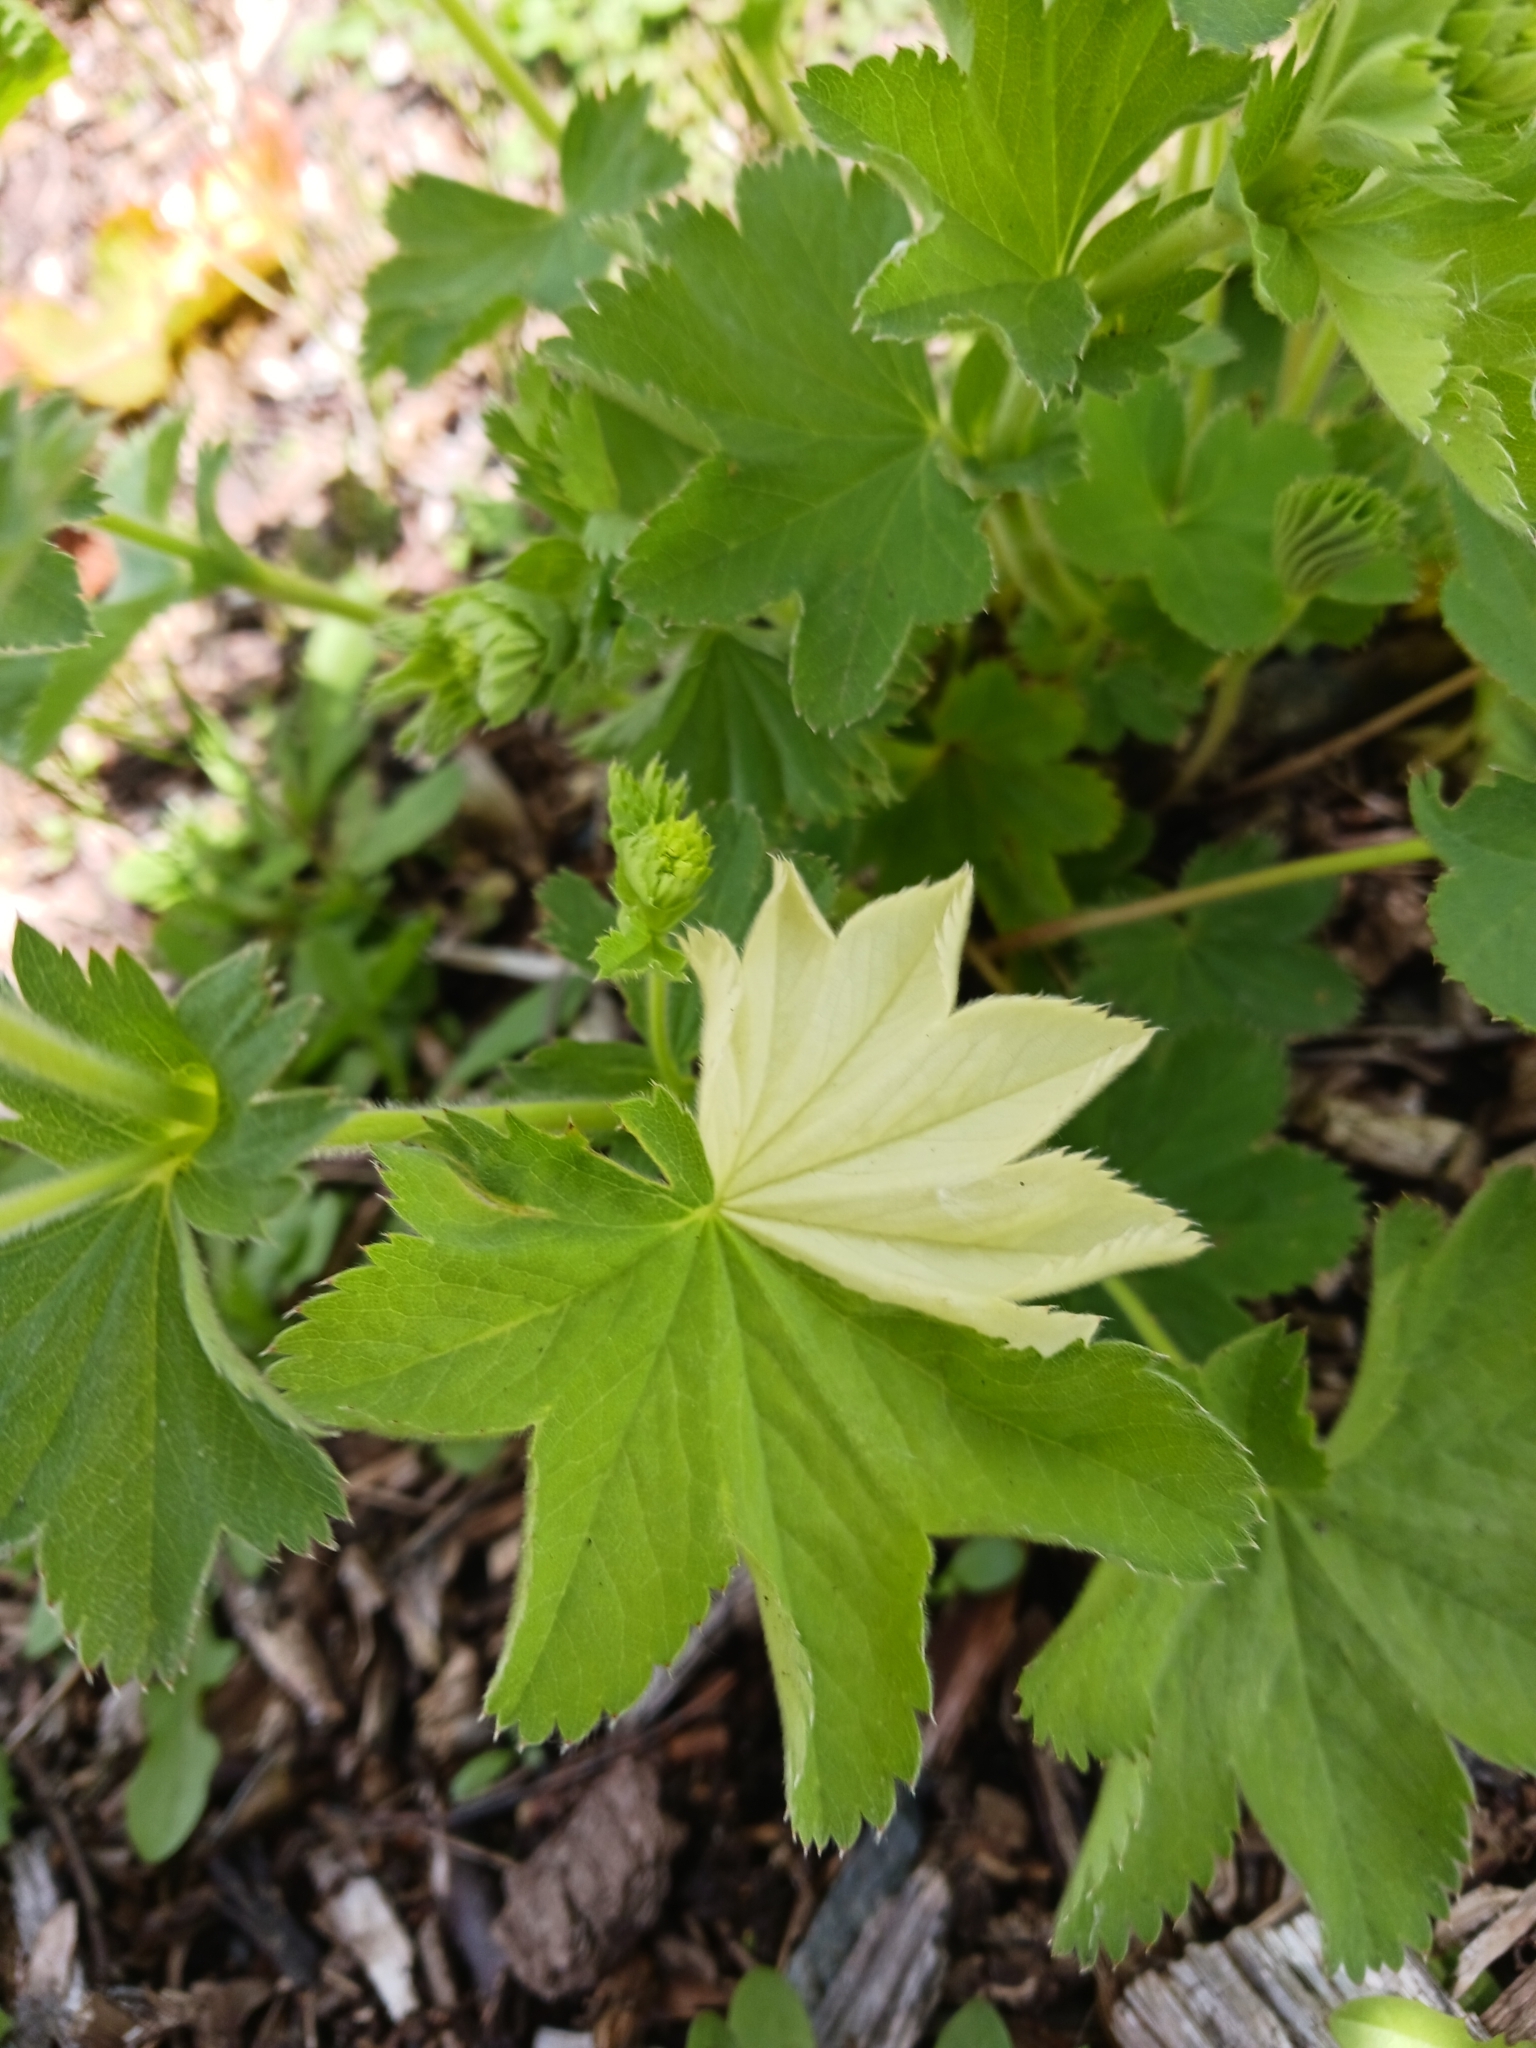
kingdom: Plantae
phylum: Tracheophyta
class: Magnoliopsida
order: Rosales
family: Rosaceae
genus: Alchemilla
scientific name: Alchemilla mollis
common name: Lady's-mantle
